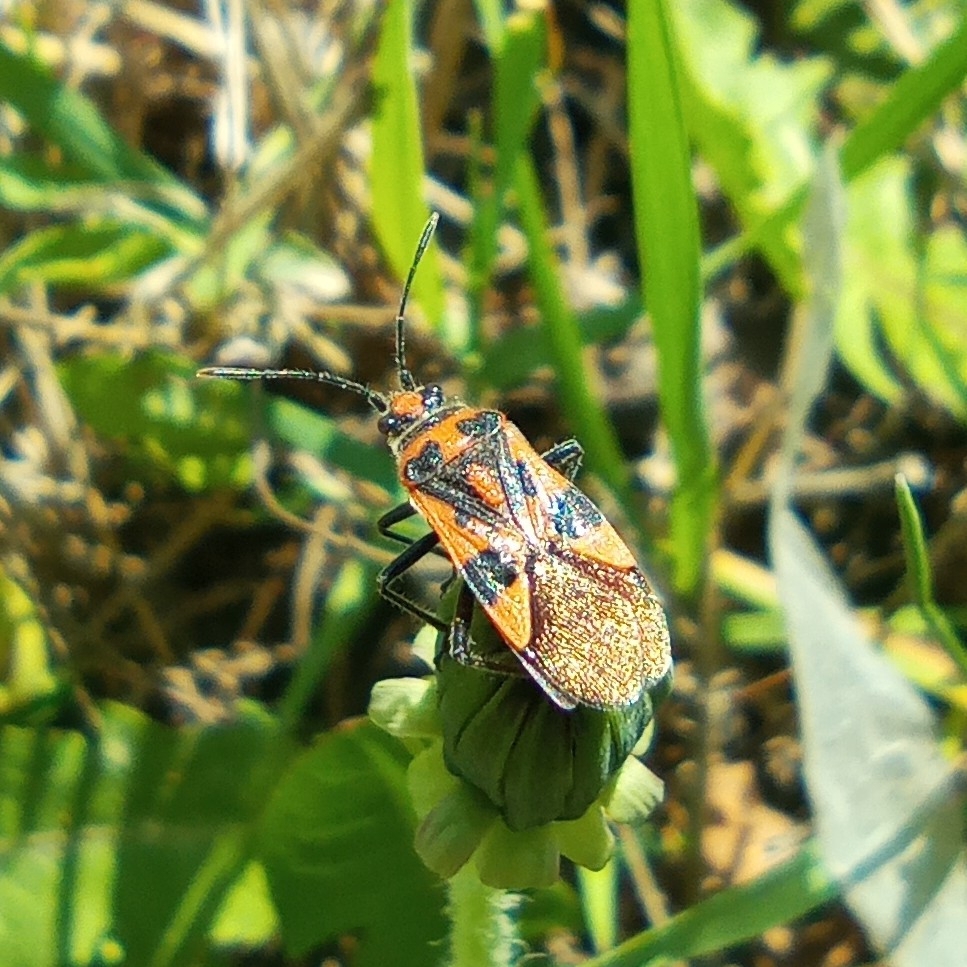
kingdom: Animalia
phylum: Arthropoda
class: Insecta
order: Hemiptera
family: Rhopalidae
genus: Corizus
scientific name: Corizus hyoscyami
